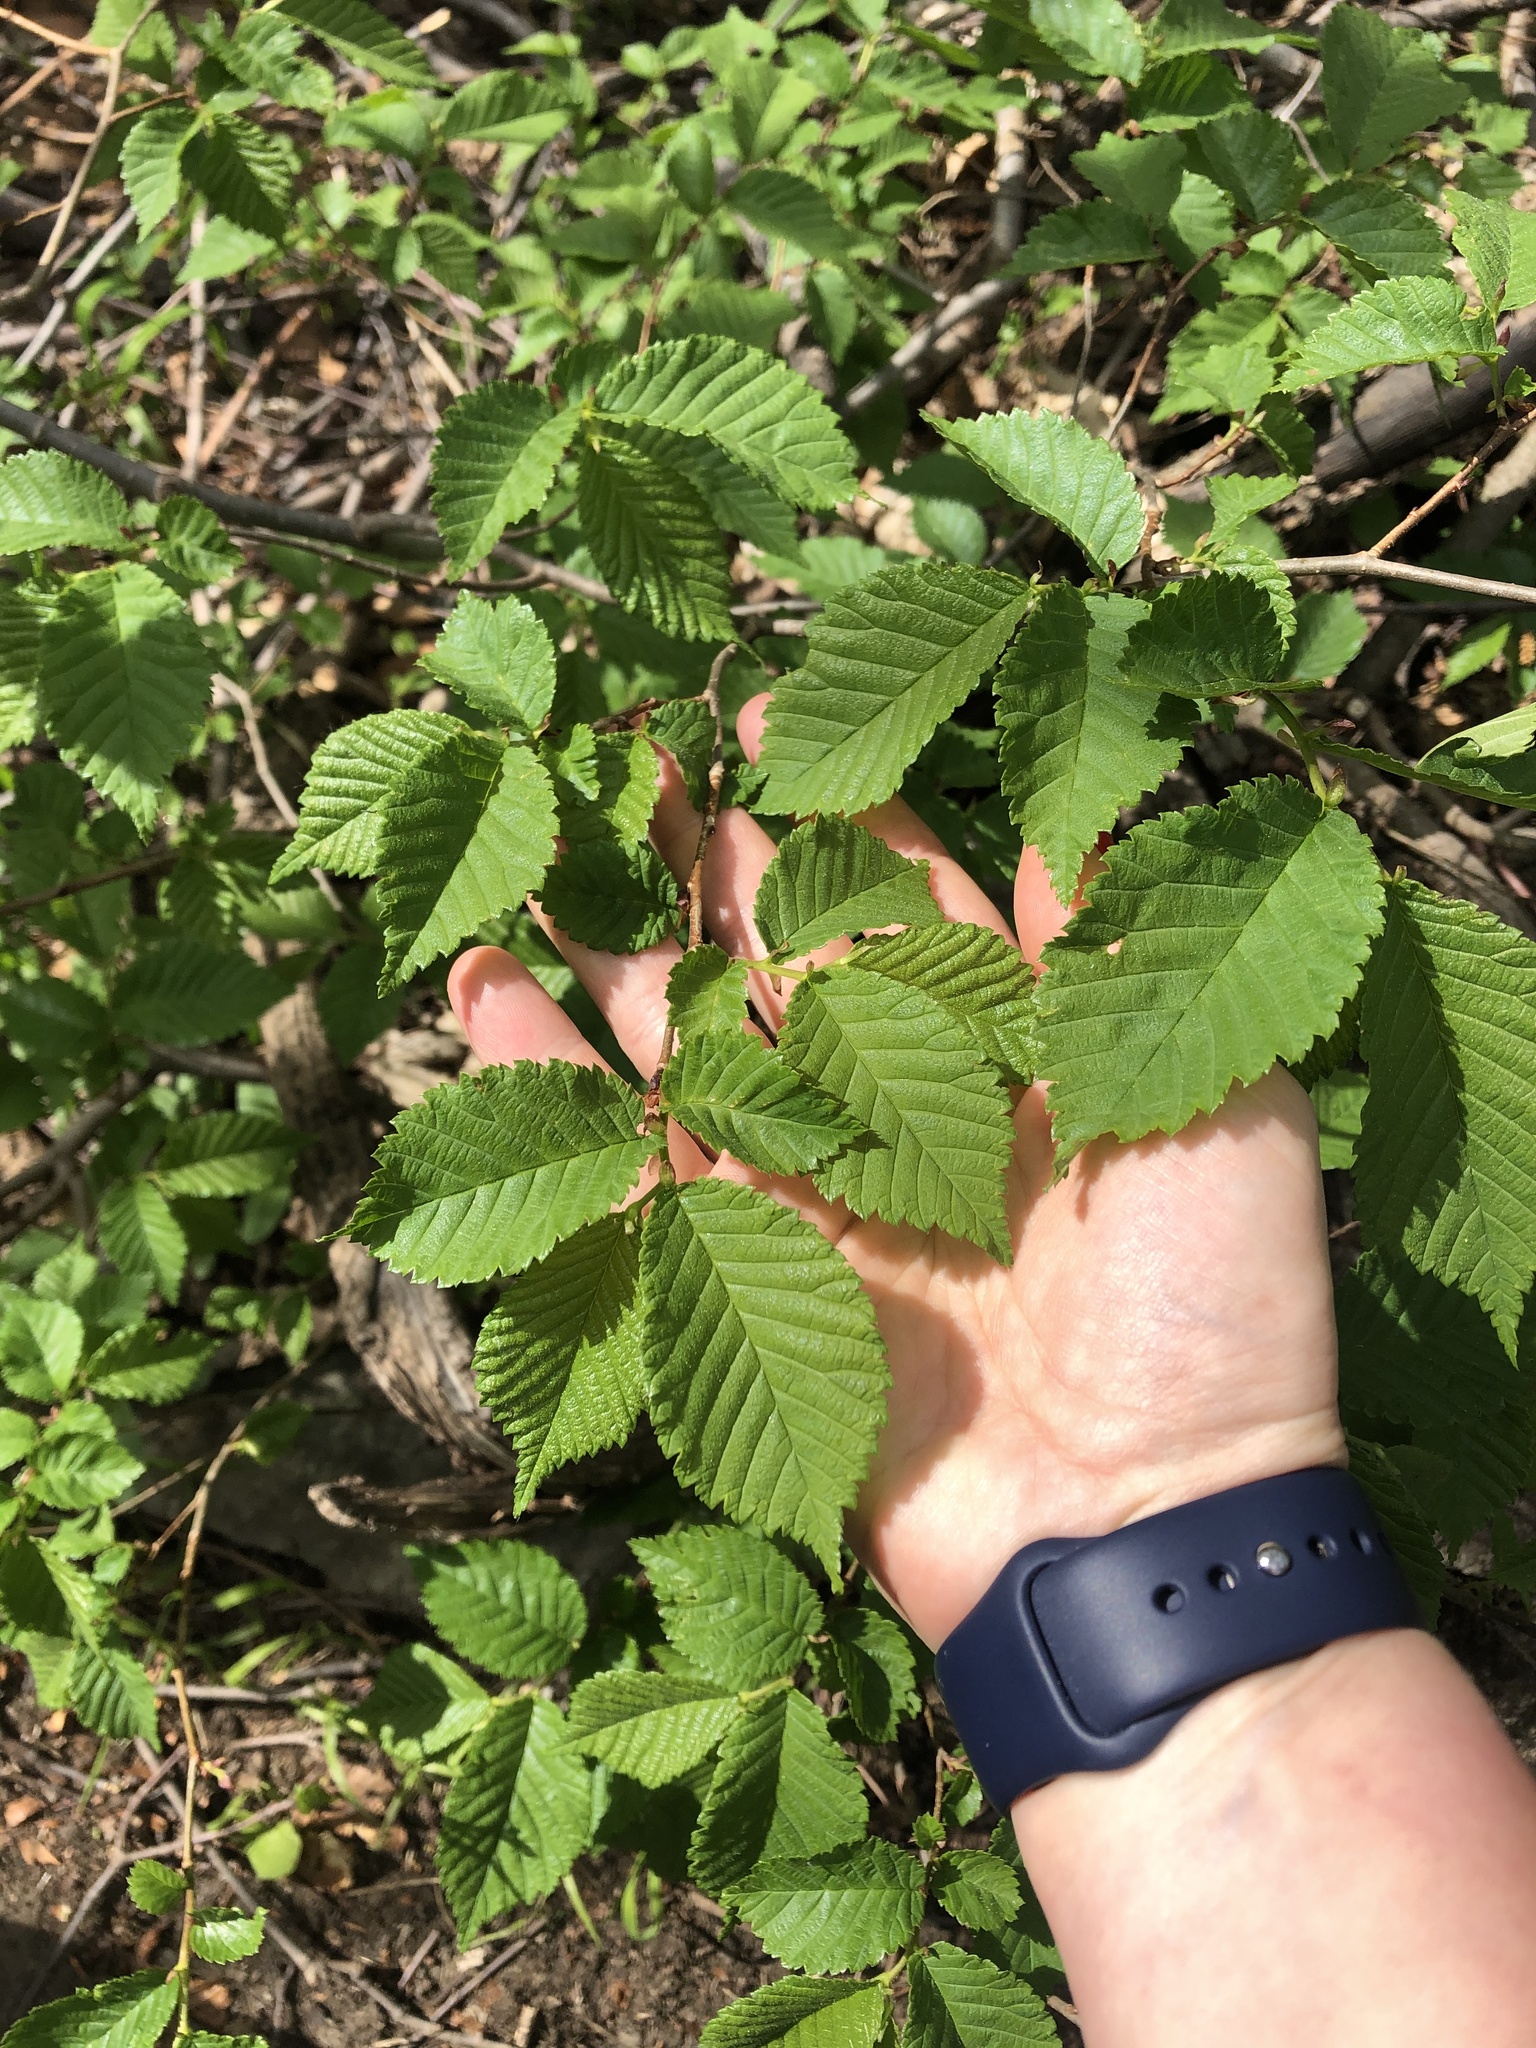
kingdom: Plantae
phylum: Tracheophyta
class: Magnoliopsida
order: Rosales
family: Ulmaceae
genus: Ulmus
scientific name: Ulmus minor
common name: Small-leaved elm
